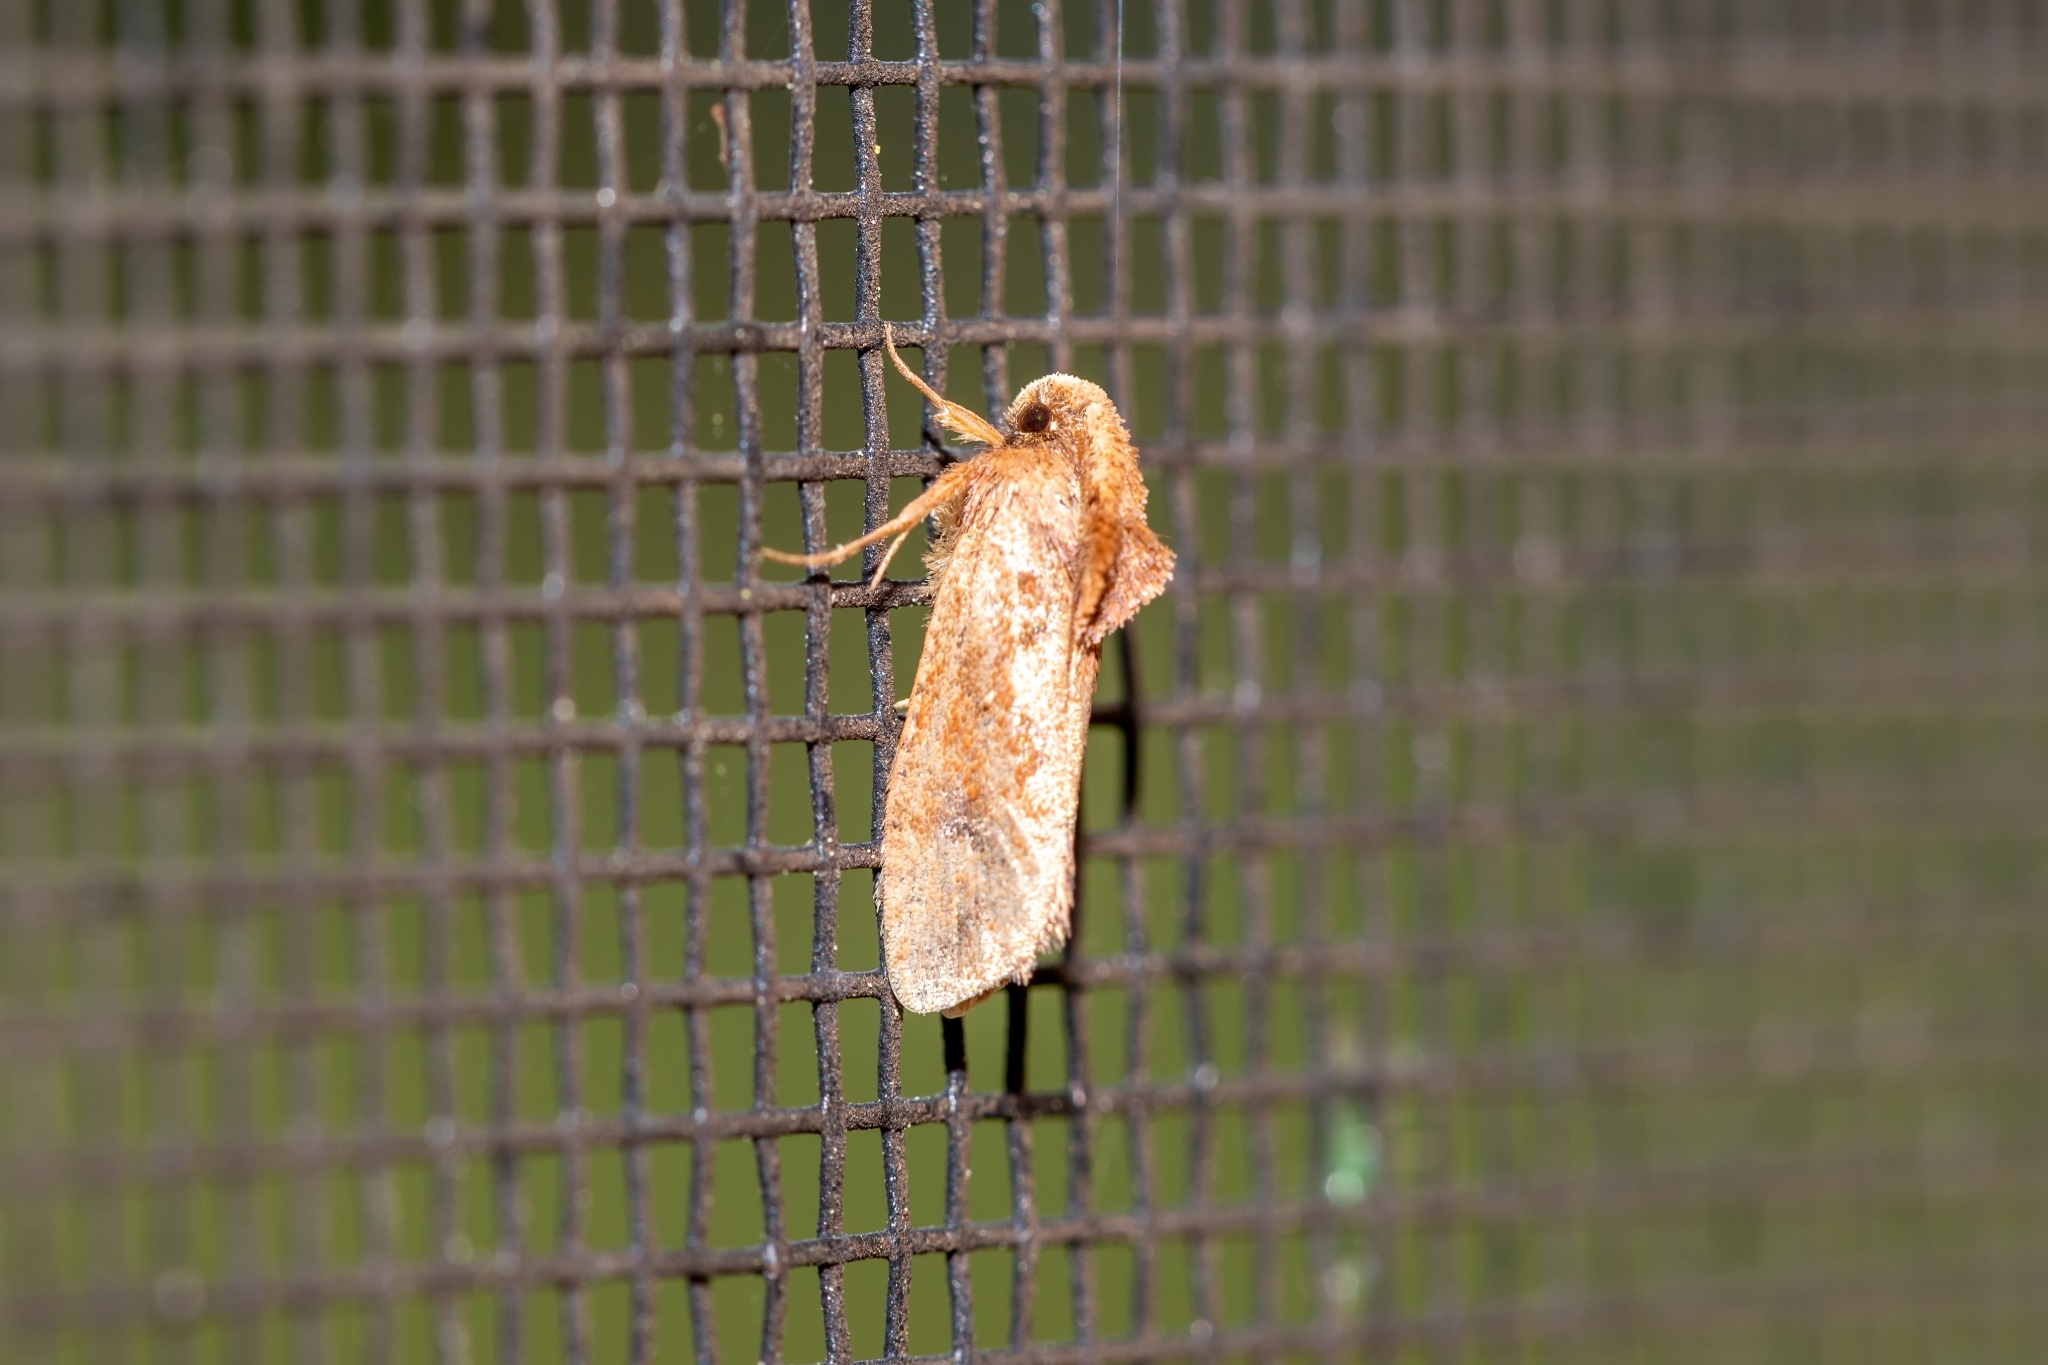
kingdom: Animalia
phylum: Arthropoda
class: Insecta
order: Lepidoptera
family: Tineidae
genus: Acrolophus
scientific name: Acrolophus walsinghami
